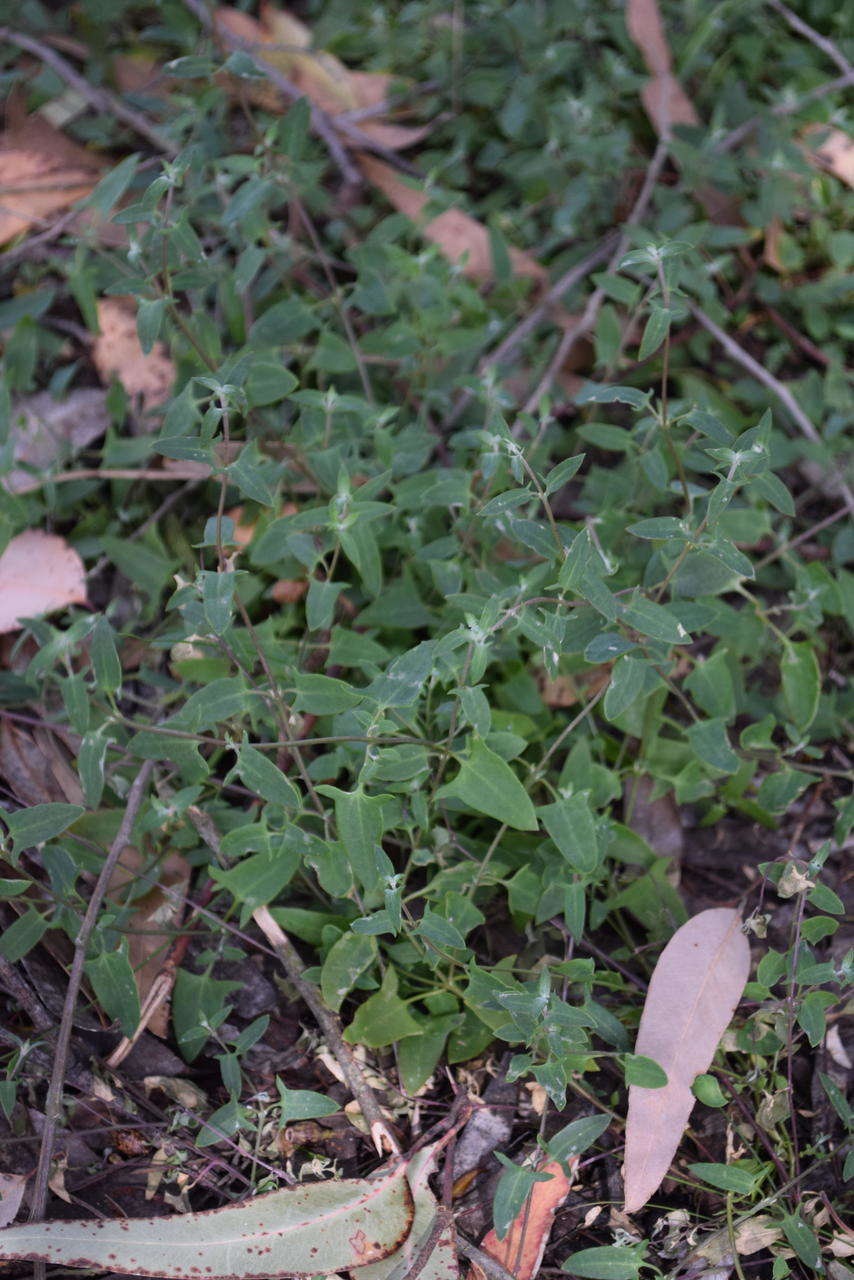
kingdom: Plantae
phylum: Tracheophyta
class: Magnoliopsida
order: Caryophyllales
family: Amaranthaceae
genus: Chenopodium
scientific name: Chenopodium nutans
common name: Climbing-saltbush
